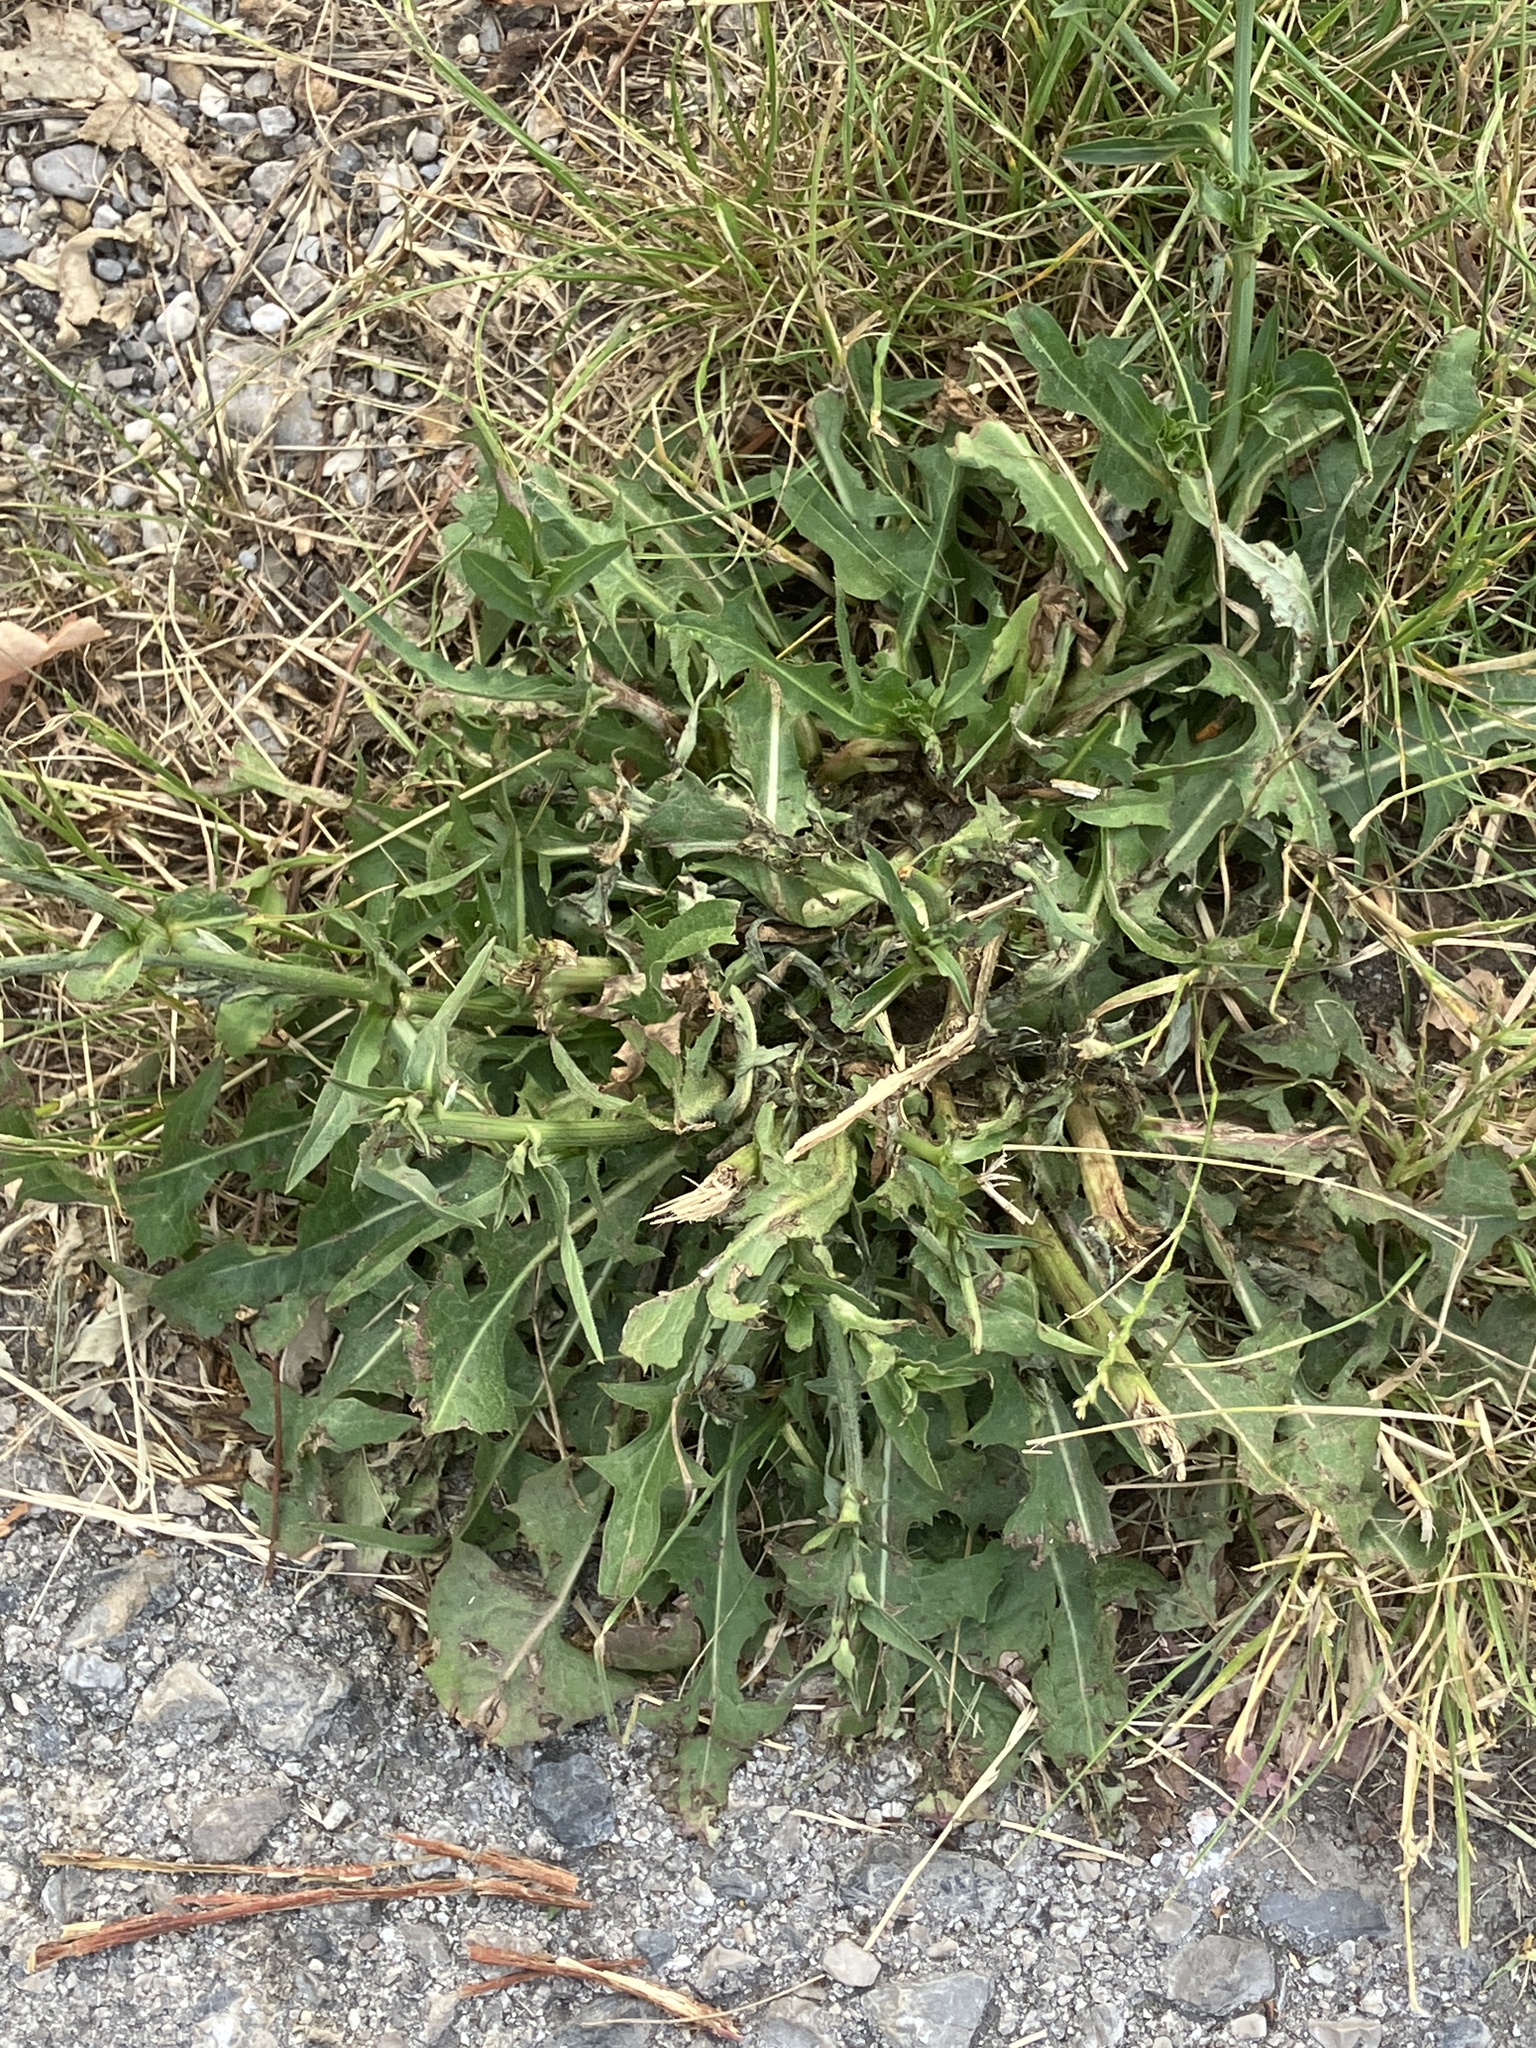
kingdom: Plantae
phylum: Tracheophyta
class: Magnoliopsida
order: Asterales
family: Asteraceae
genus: Cichorium
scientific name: Cichorium intybus
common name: Chicory
